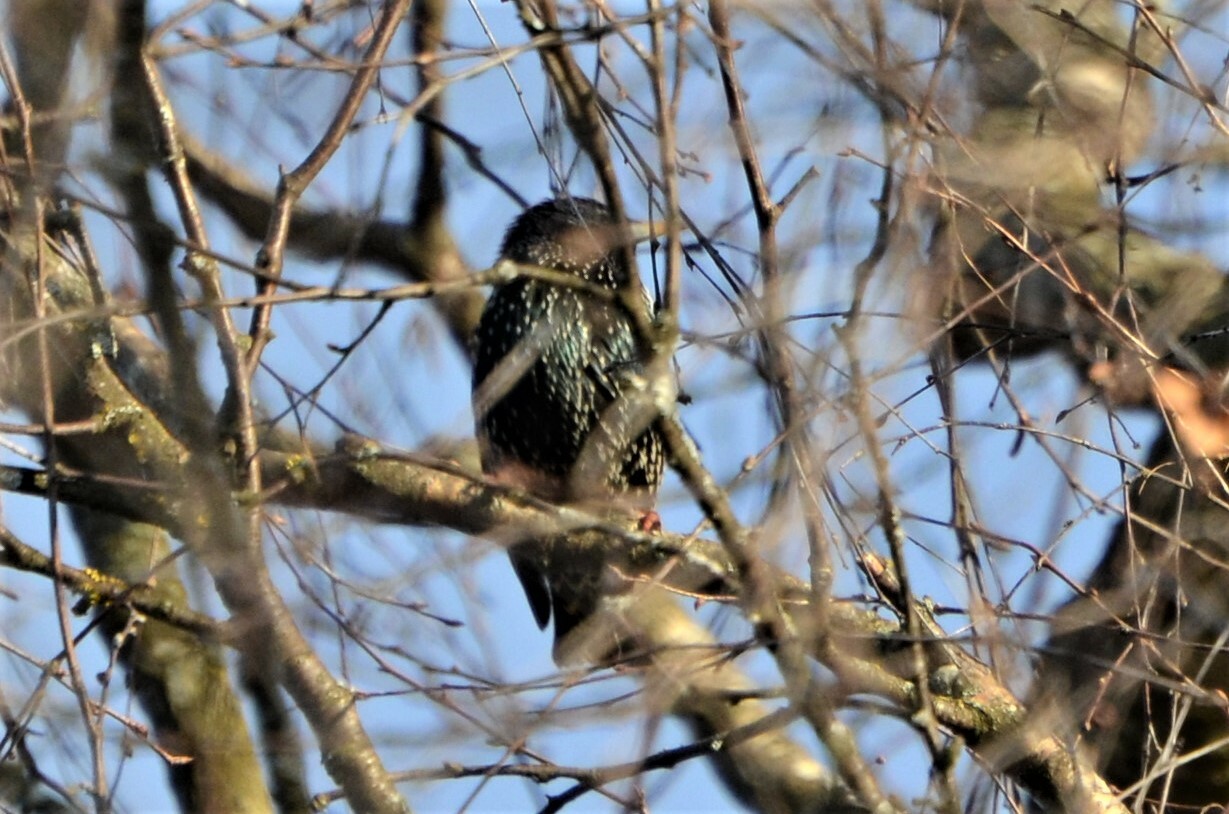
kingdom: Animalia
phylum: Chordata
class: Aves
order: Passeriformes
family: Sturnidae
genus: Sturnus
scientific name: Sturnus vulgaris
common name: Common starling
